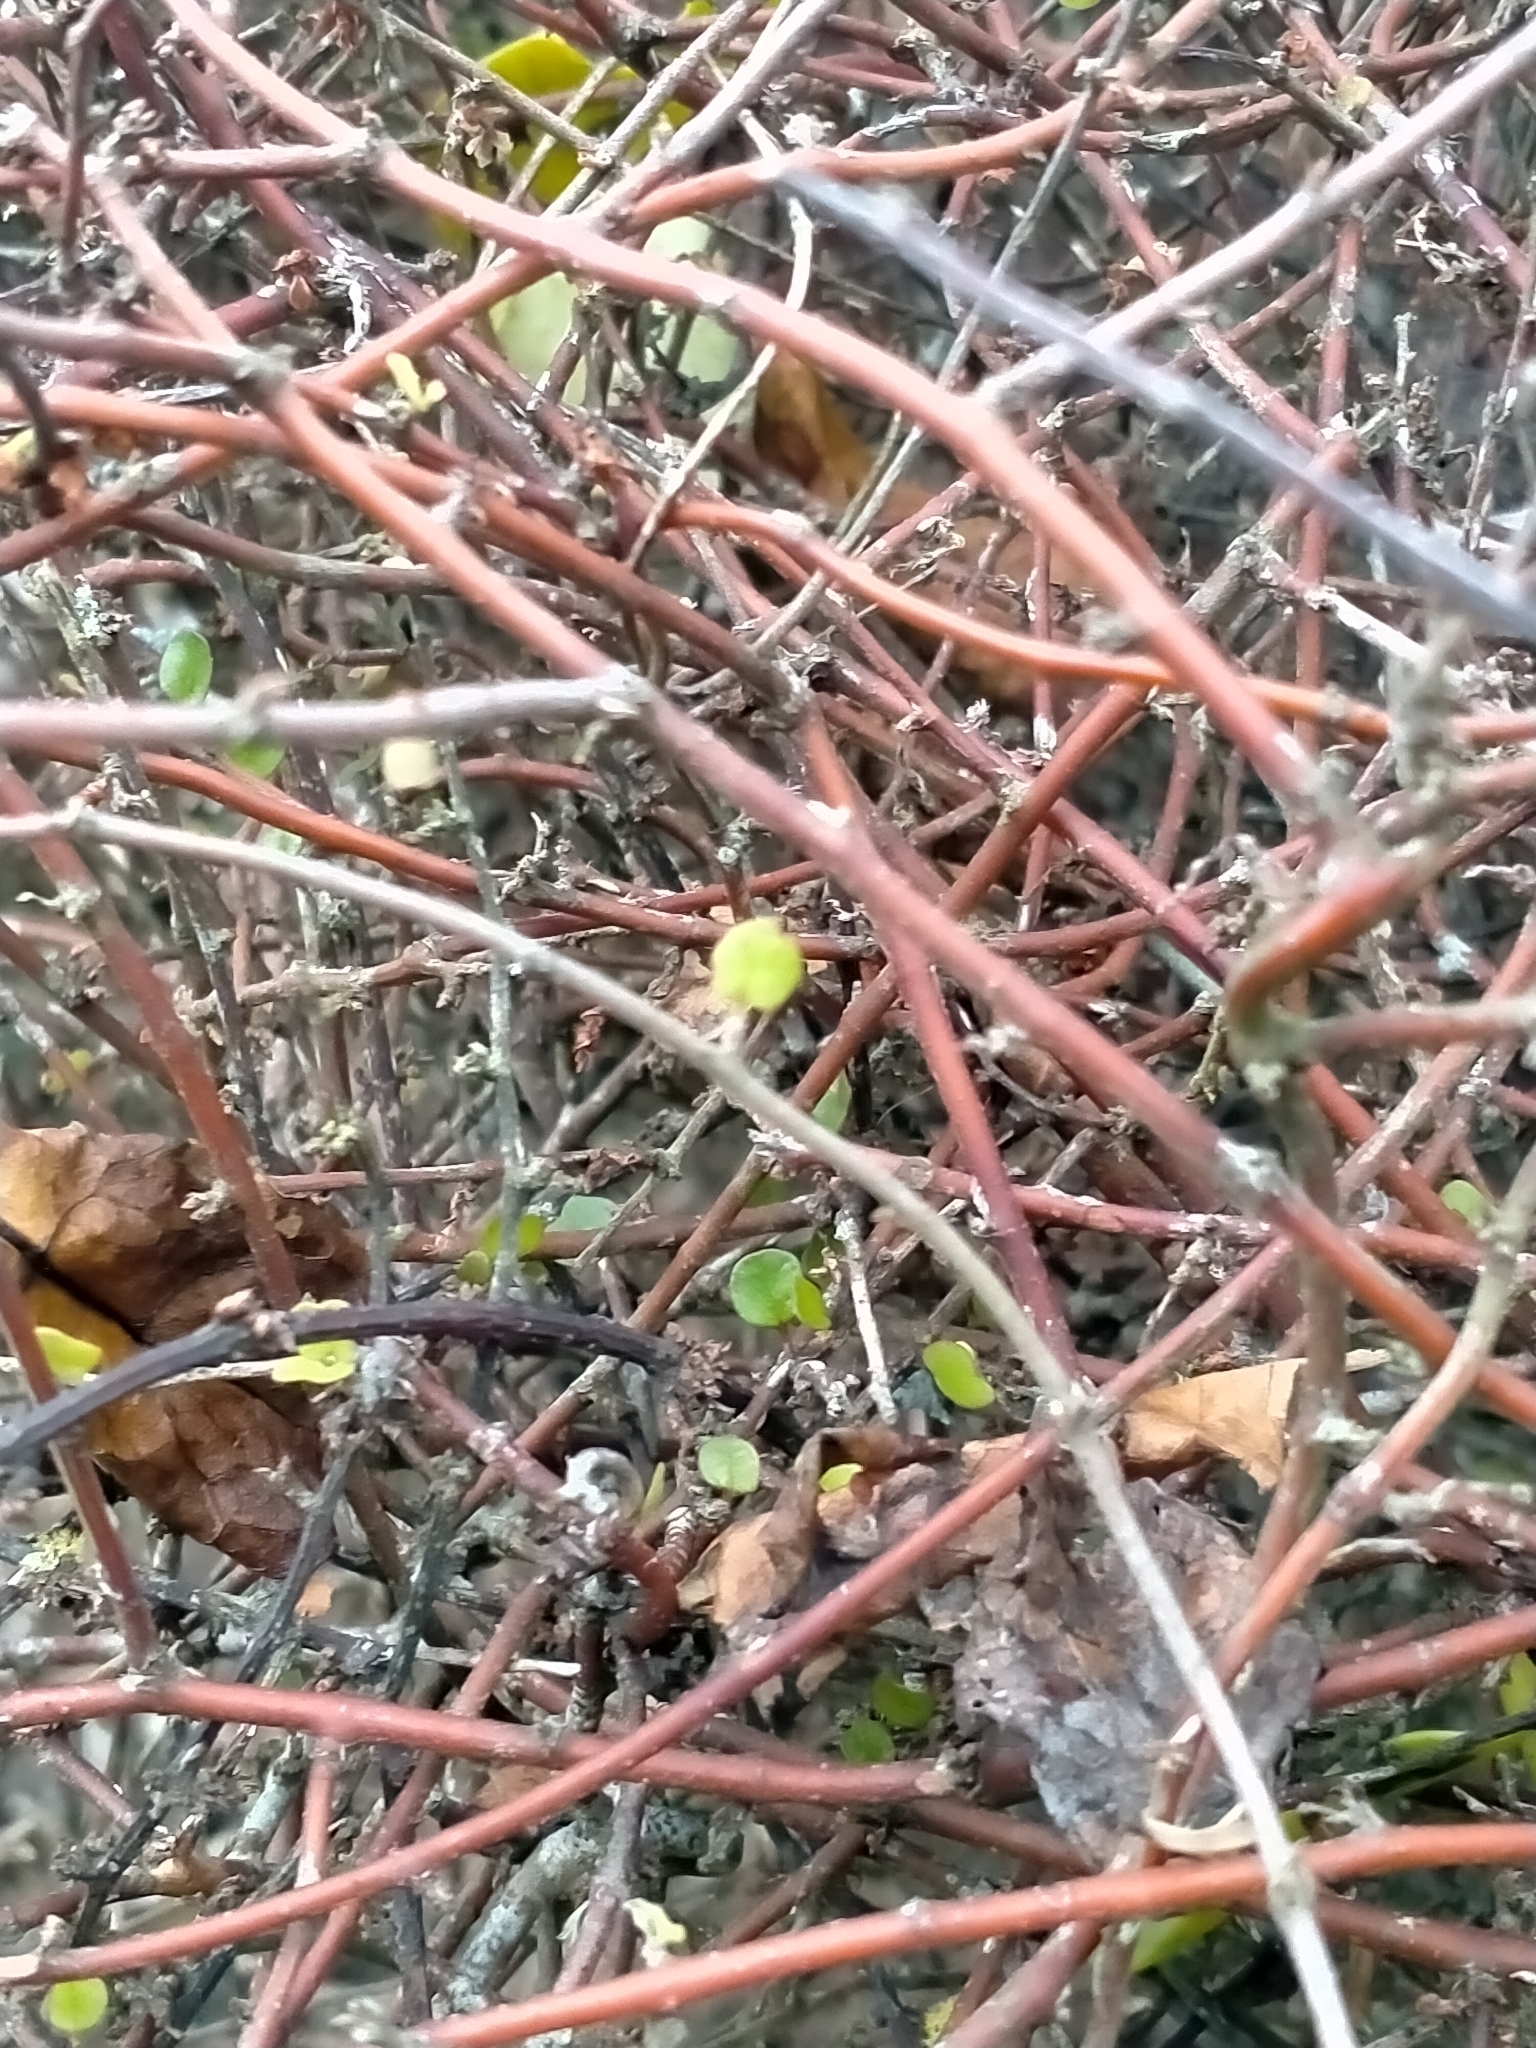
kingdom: Plantae
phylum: Tracheophyta
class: Magnoliopsida
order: Caryophyllales
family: Polygonaceae
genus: Muehlenbeckia
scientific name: Muehlenbeckia complexa
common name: Wireplant
